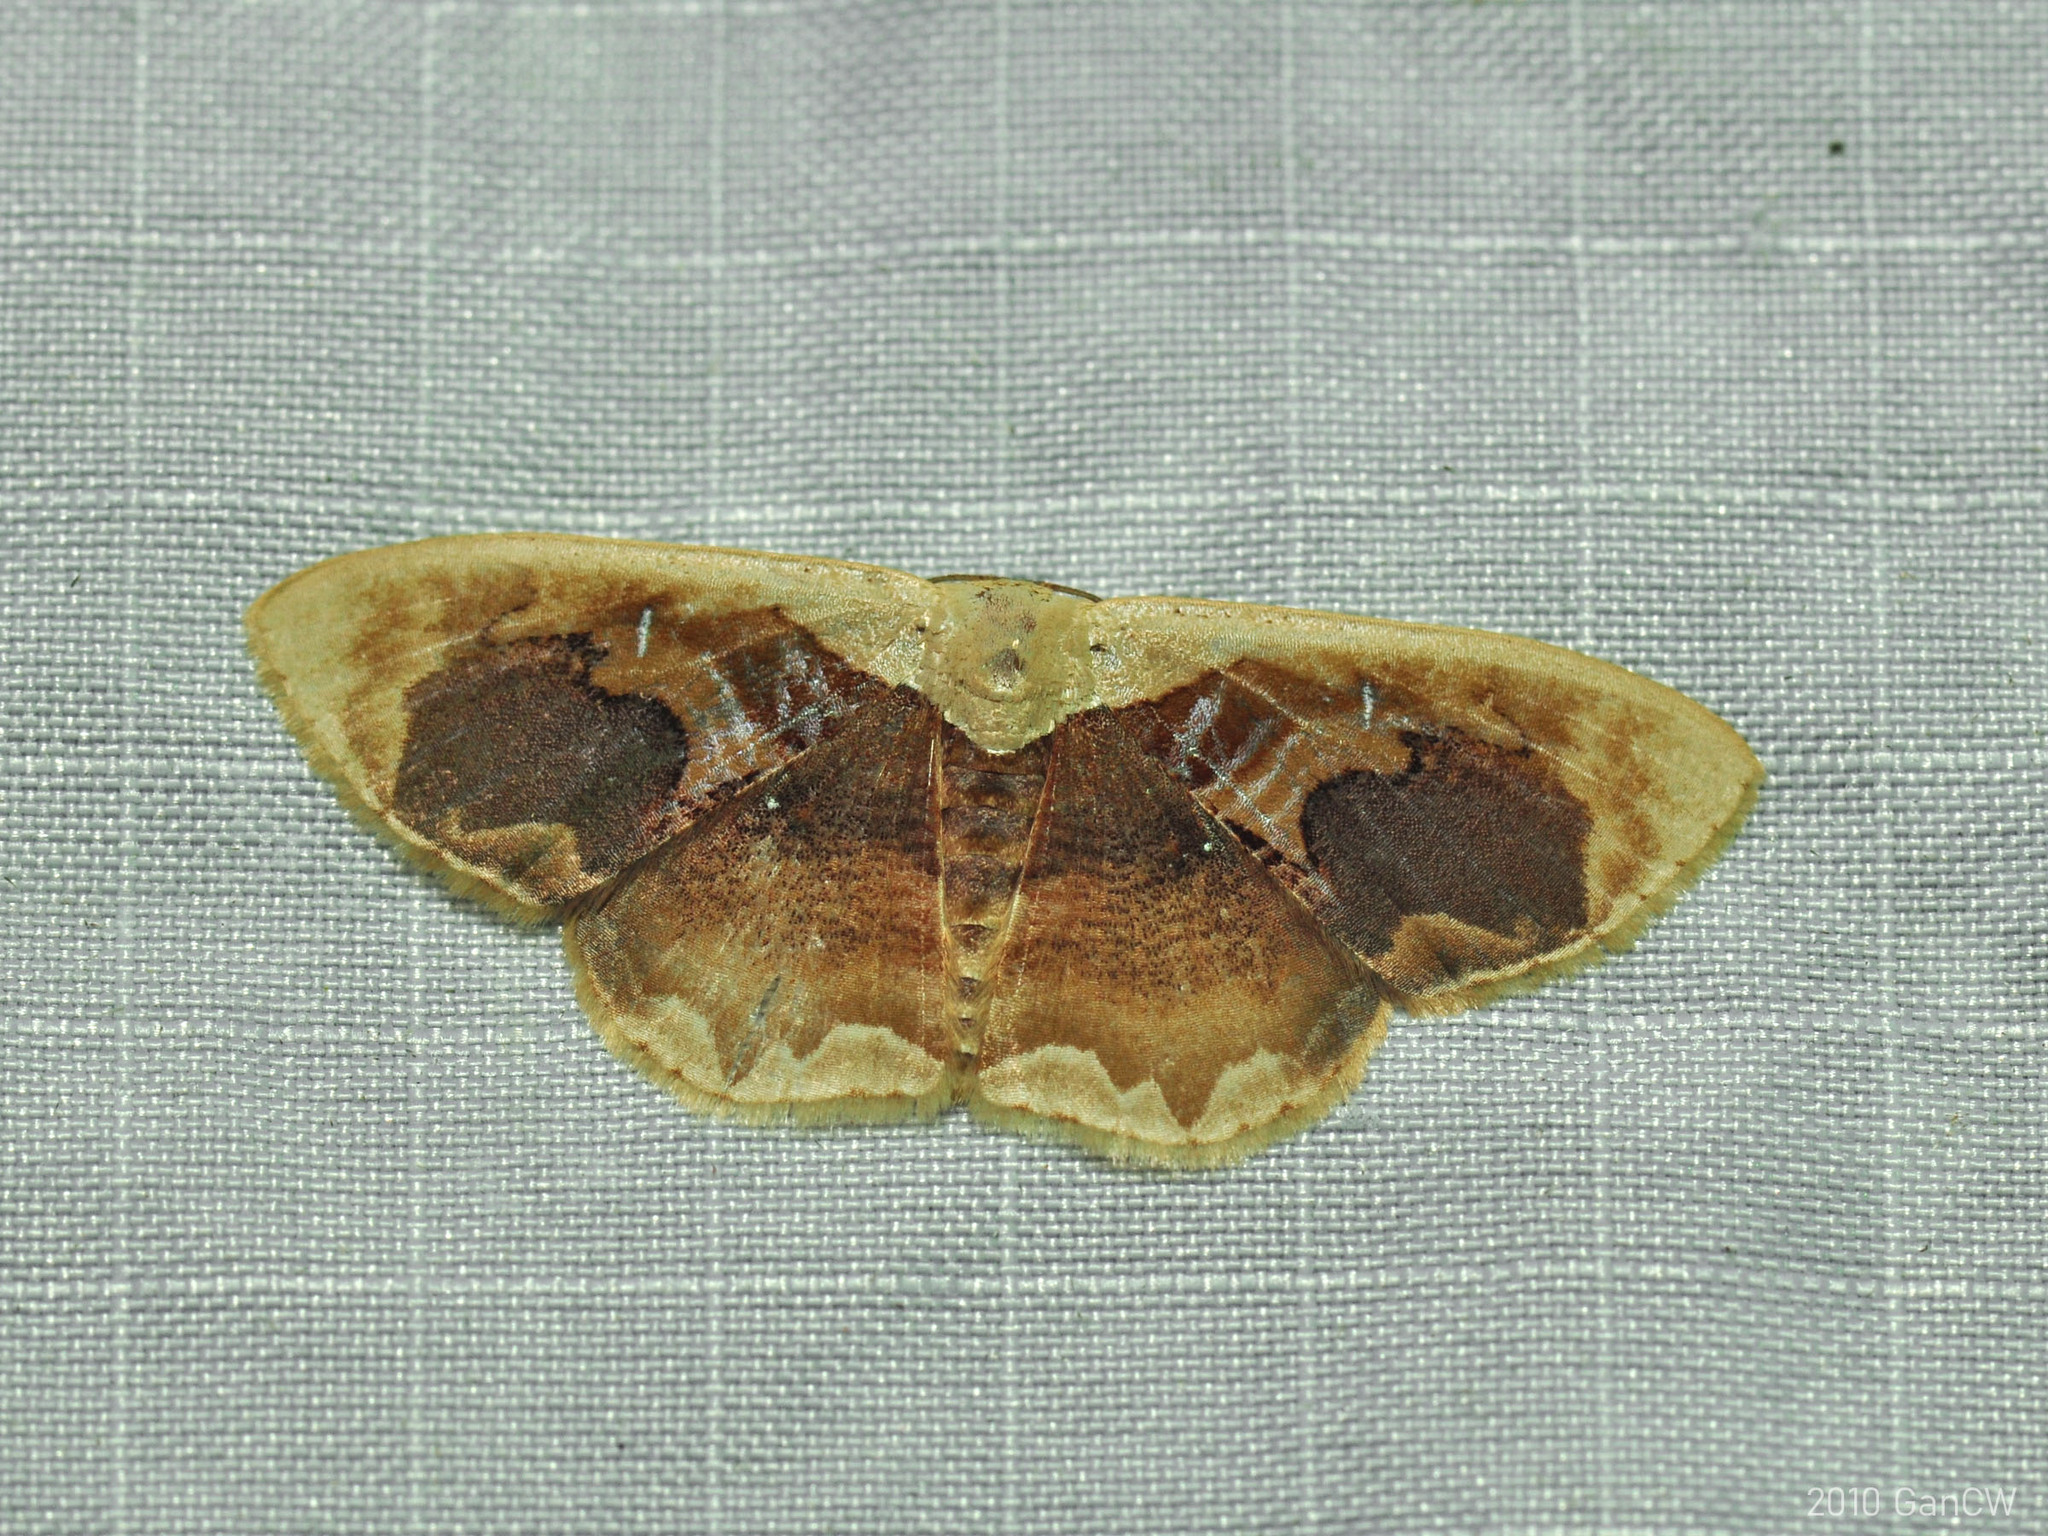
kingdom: Animalia
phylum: Arthropoda
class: Insecta
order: Lepidoptera
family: Geometridae
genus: Lipomelia
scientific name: Lipomelia subusta
